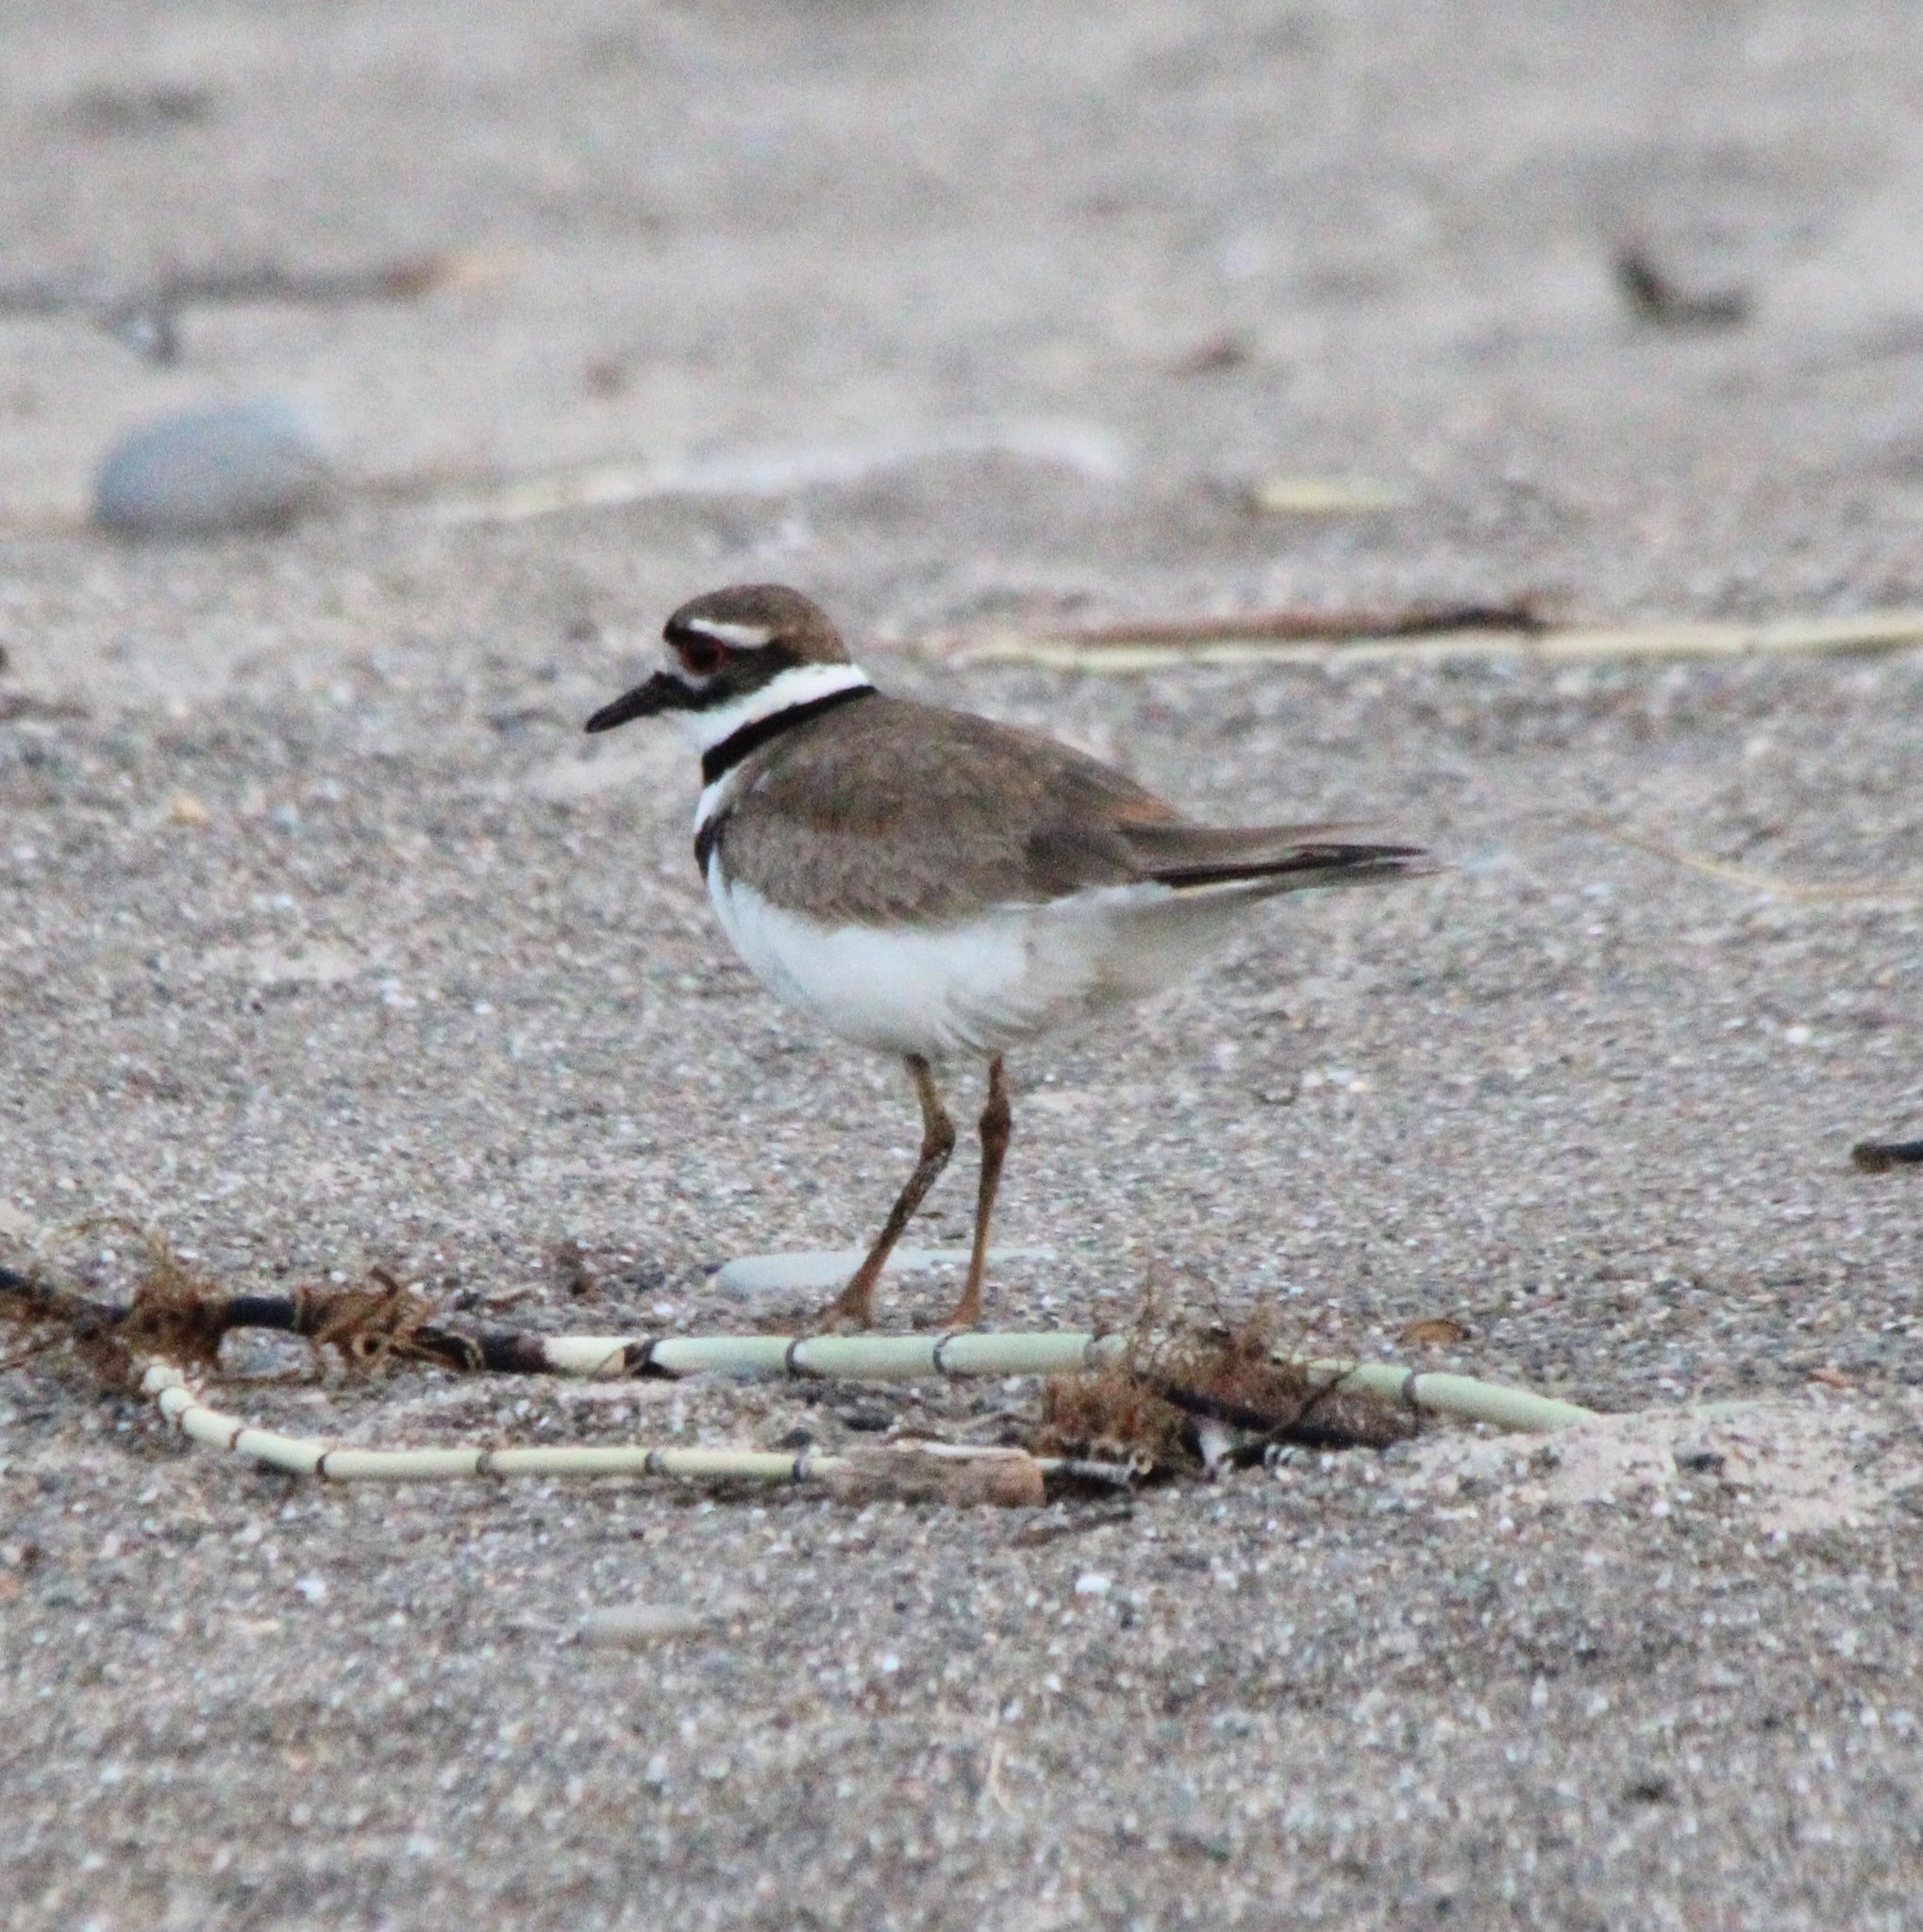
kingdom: Animalia
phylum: Chordata
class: Aves
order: Charadriiformes
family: Charadriidae
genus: Charadrius
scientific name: Charadrius vociferus
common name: Killdeer
